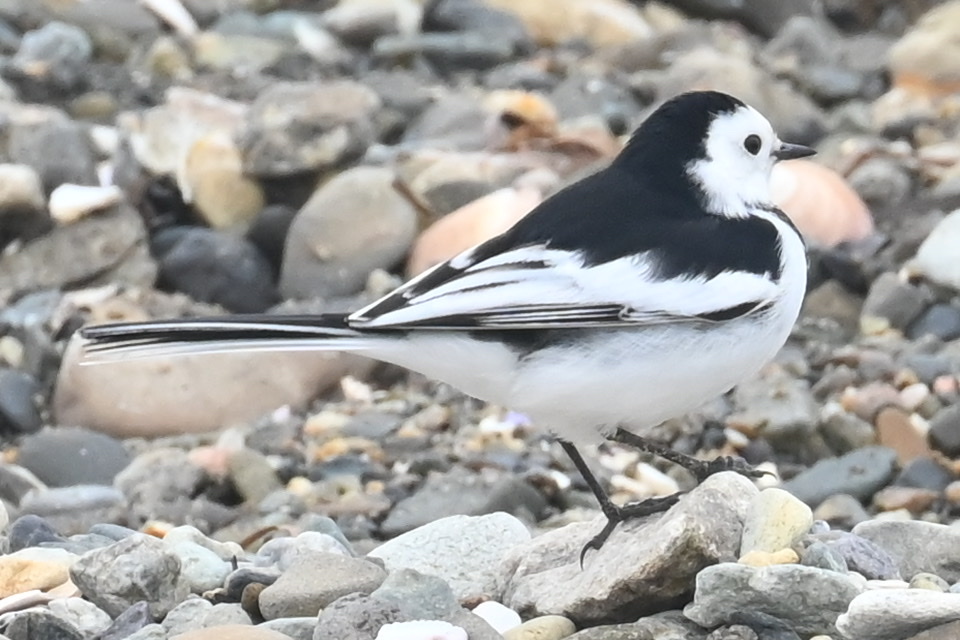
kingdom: Animalia
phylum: Chordata
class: Aves
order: Passeriformes
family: Motacillidae
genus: Motacilla
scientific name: Motacilla alba
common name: White wagtail
